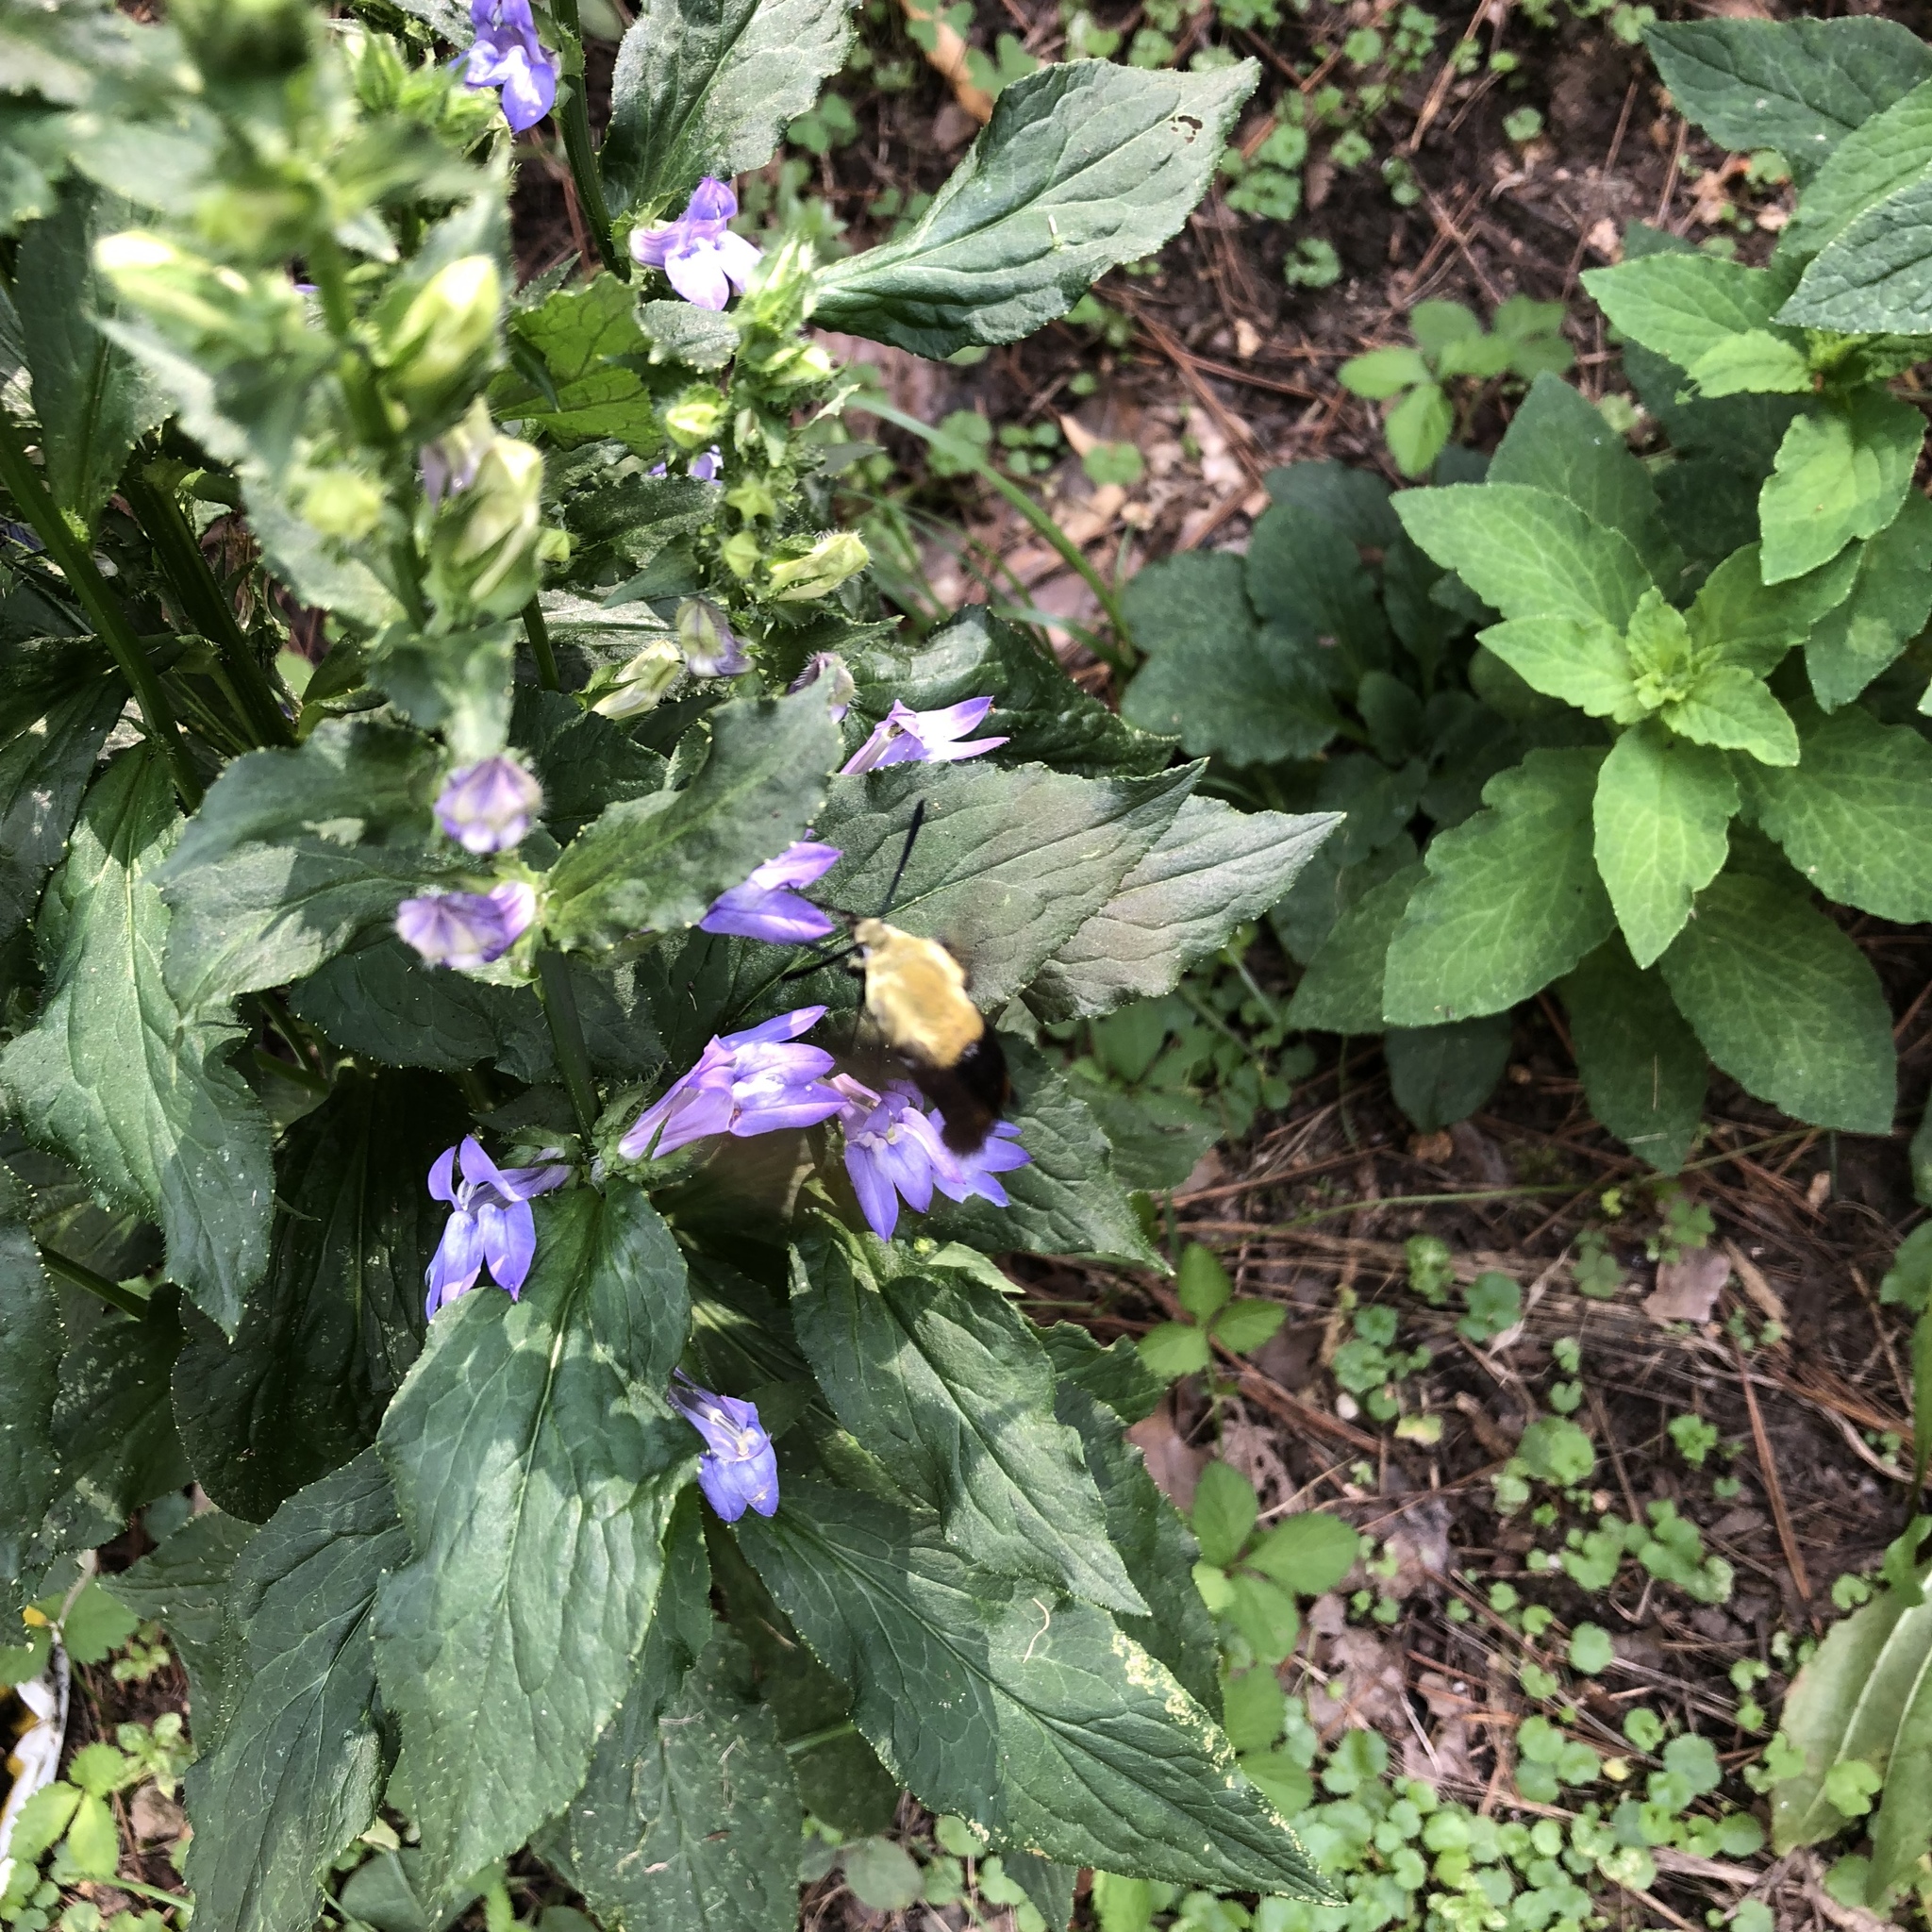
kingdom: Animalia
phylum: Arthropoda
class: Insecta
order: Lepidoptera
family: Sphingidae
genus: Hemaris
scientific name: Hemaris diffinis
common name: Bumblebee moth
